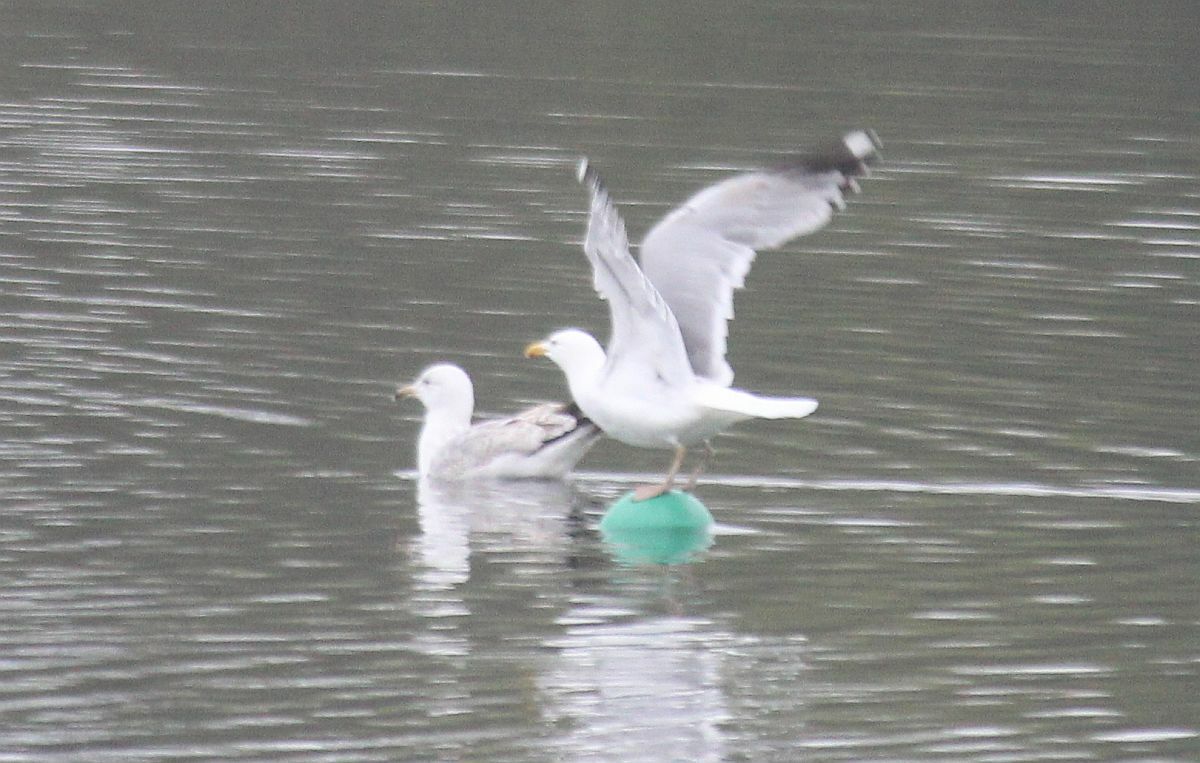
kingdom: Animalia
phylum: Chordata
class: Aves
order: Charadriiformes
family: Laridae
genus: Larus
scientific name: Larus argentatus
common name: Herring gull
